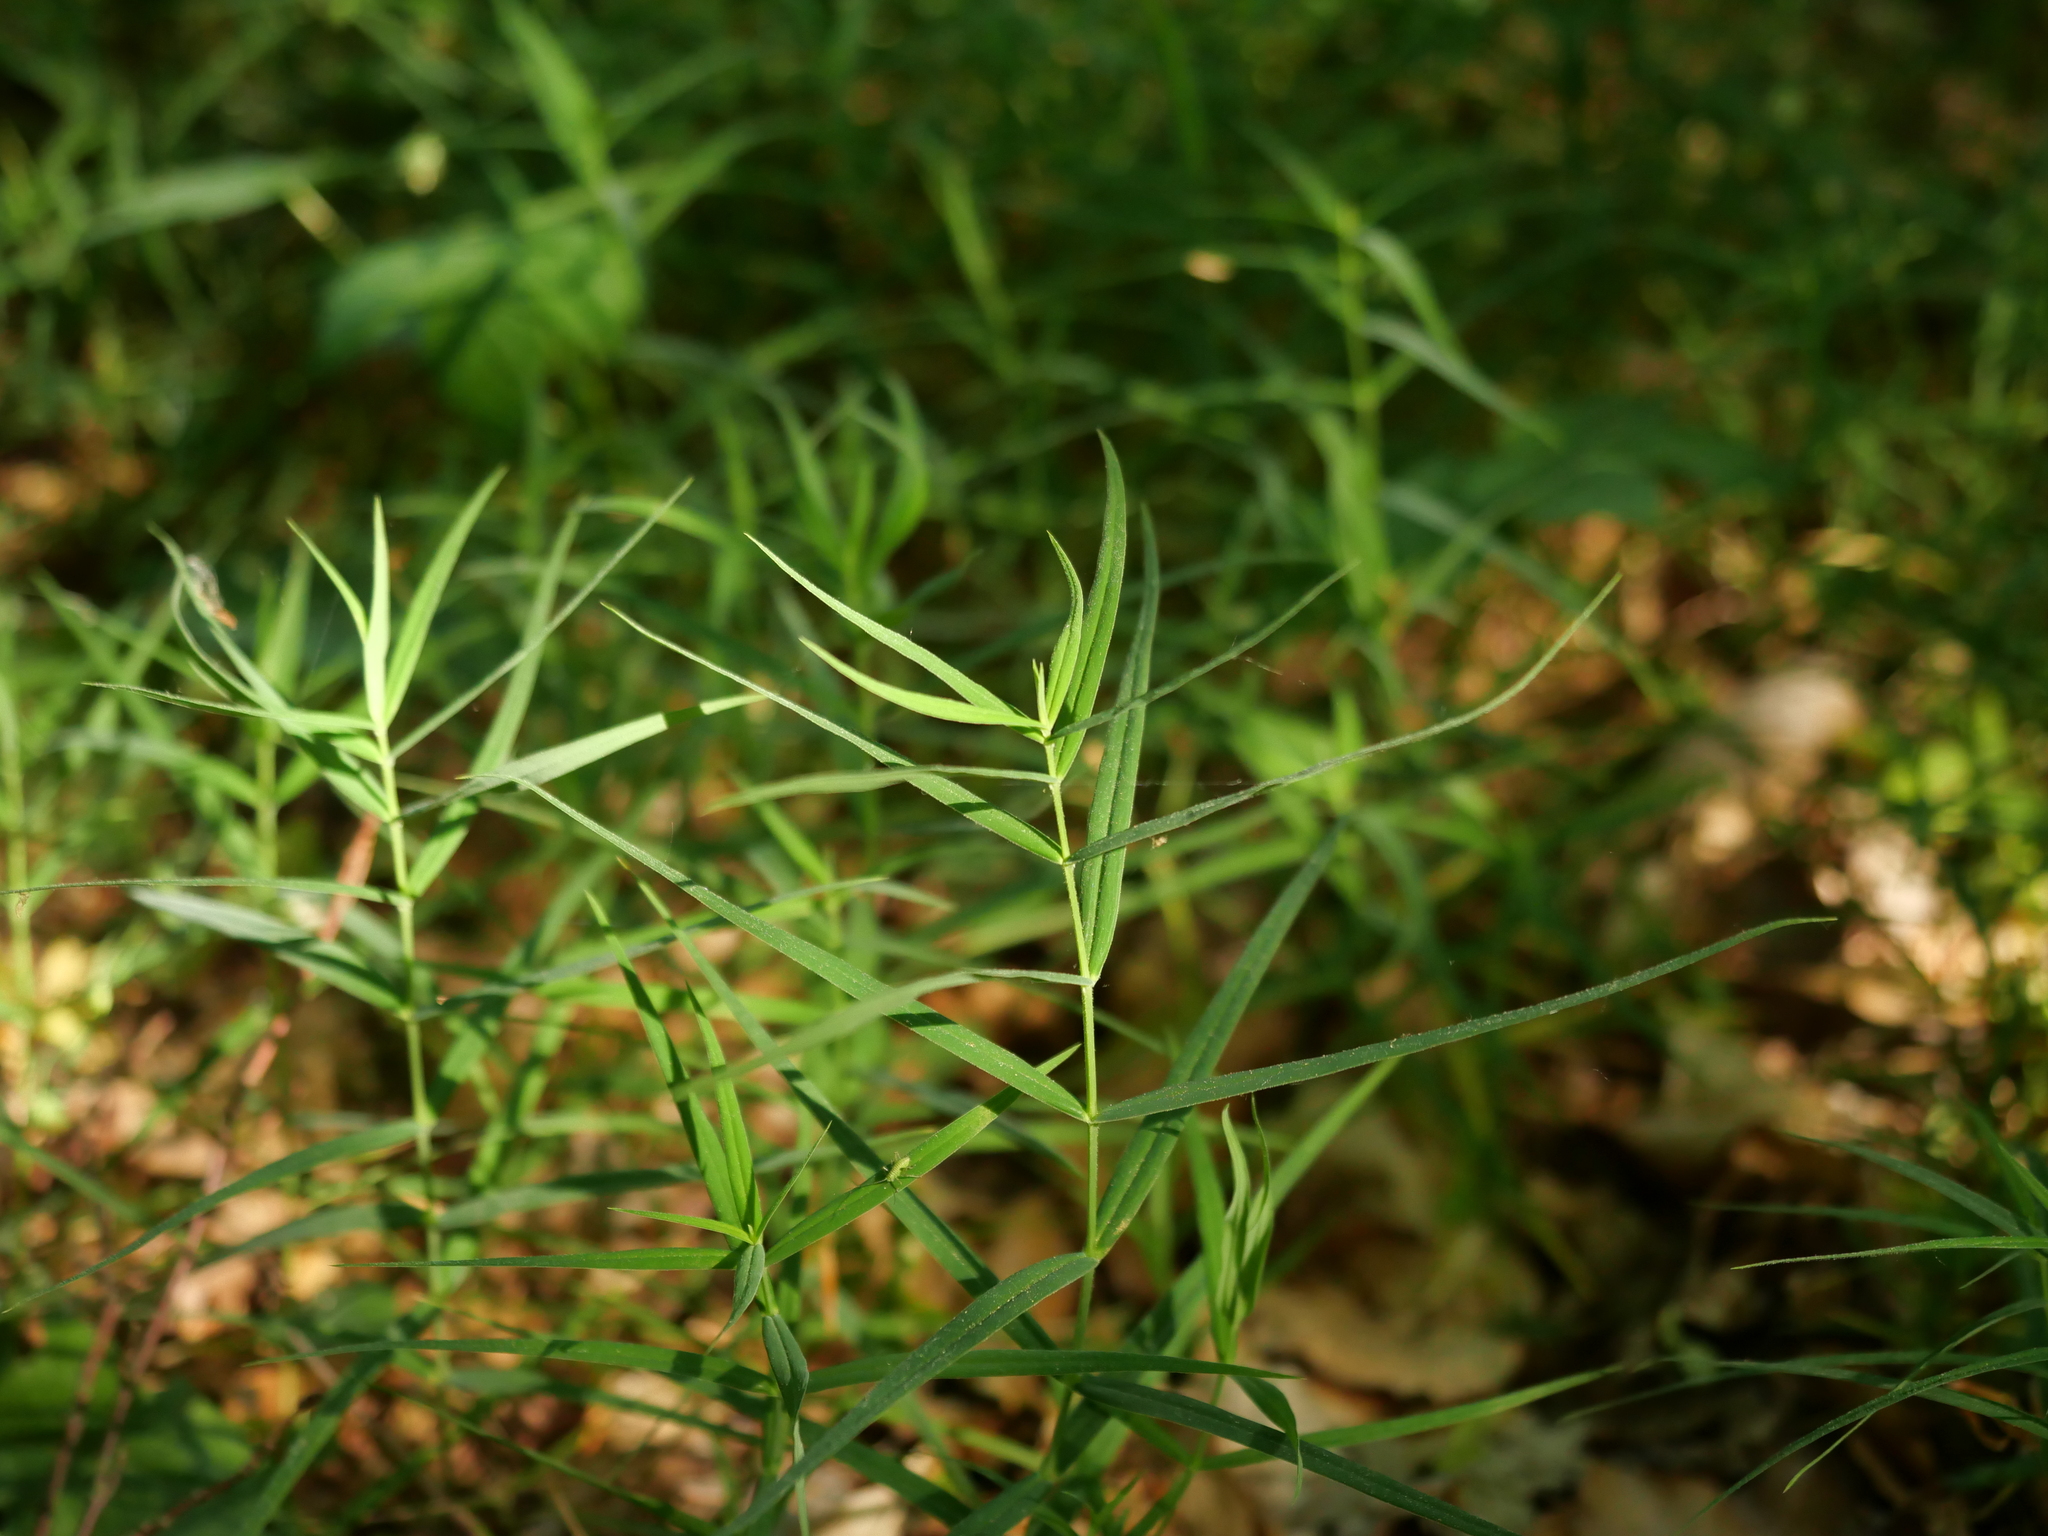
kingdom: Plantae
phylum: Tracheophyta
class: Magnoliopsida
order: Caryophyllales
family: Caryophyllaceae
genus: Rabelera
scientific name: Rabelera holostea
